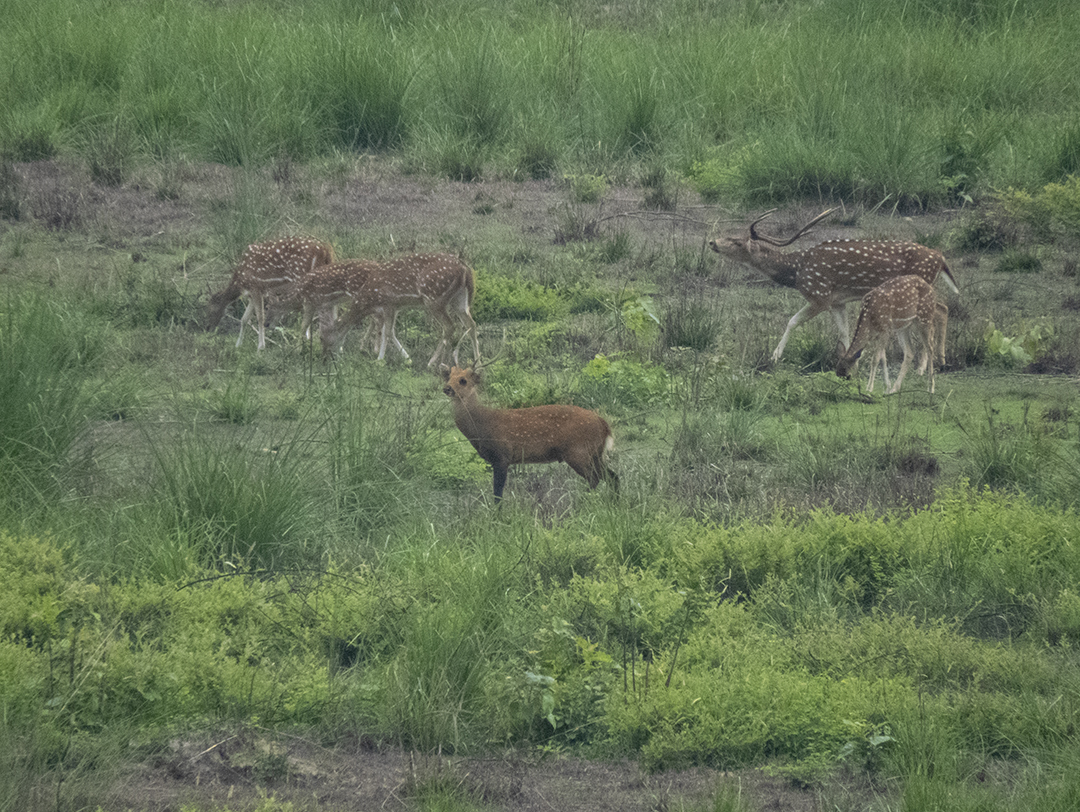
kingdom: Animalia
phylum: Chordata
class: Mammalia
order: Artiodactyla
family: Cervidae
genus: Axis
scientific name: Axis porcinus
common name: Hog deer
